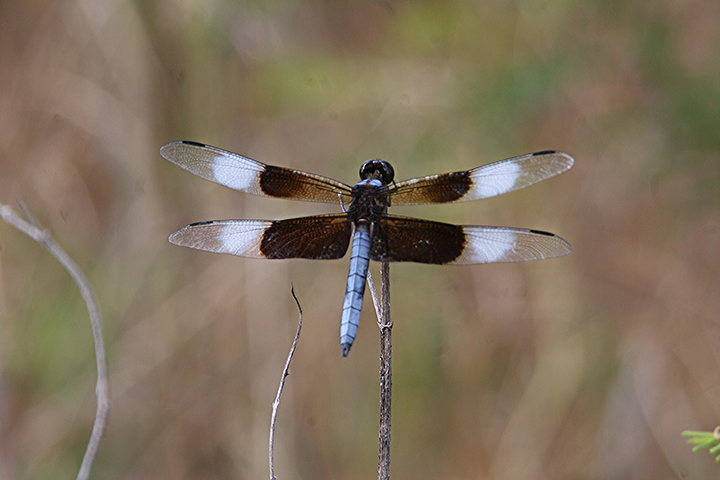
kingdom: Animalia
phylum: Arthropoda
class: Insecta
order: Odonata
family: Libellulidae
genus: Libellula
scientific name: Libellula luctuosa
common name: Widow skimmer
